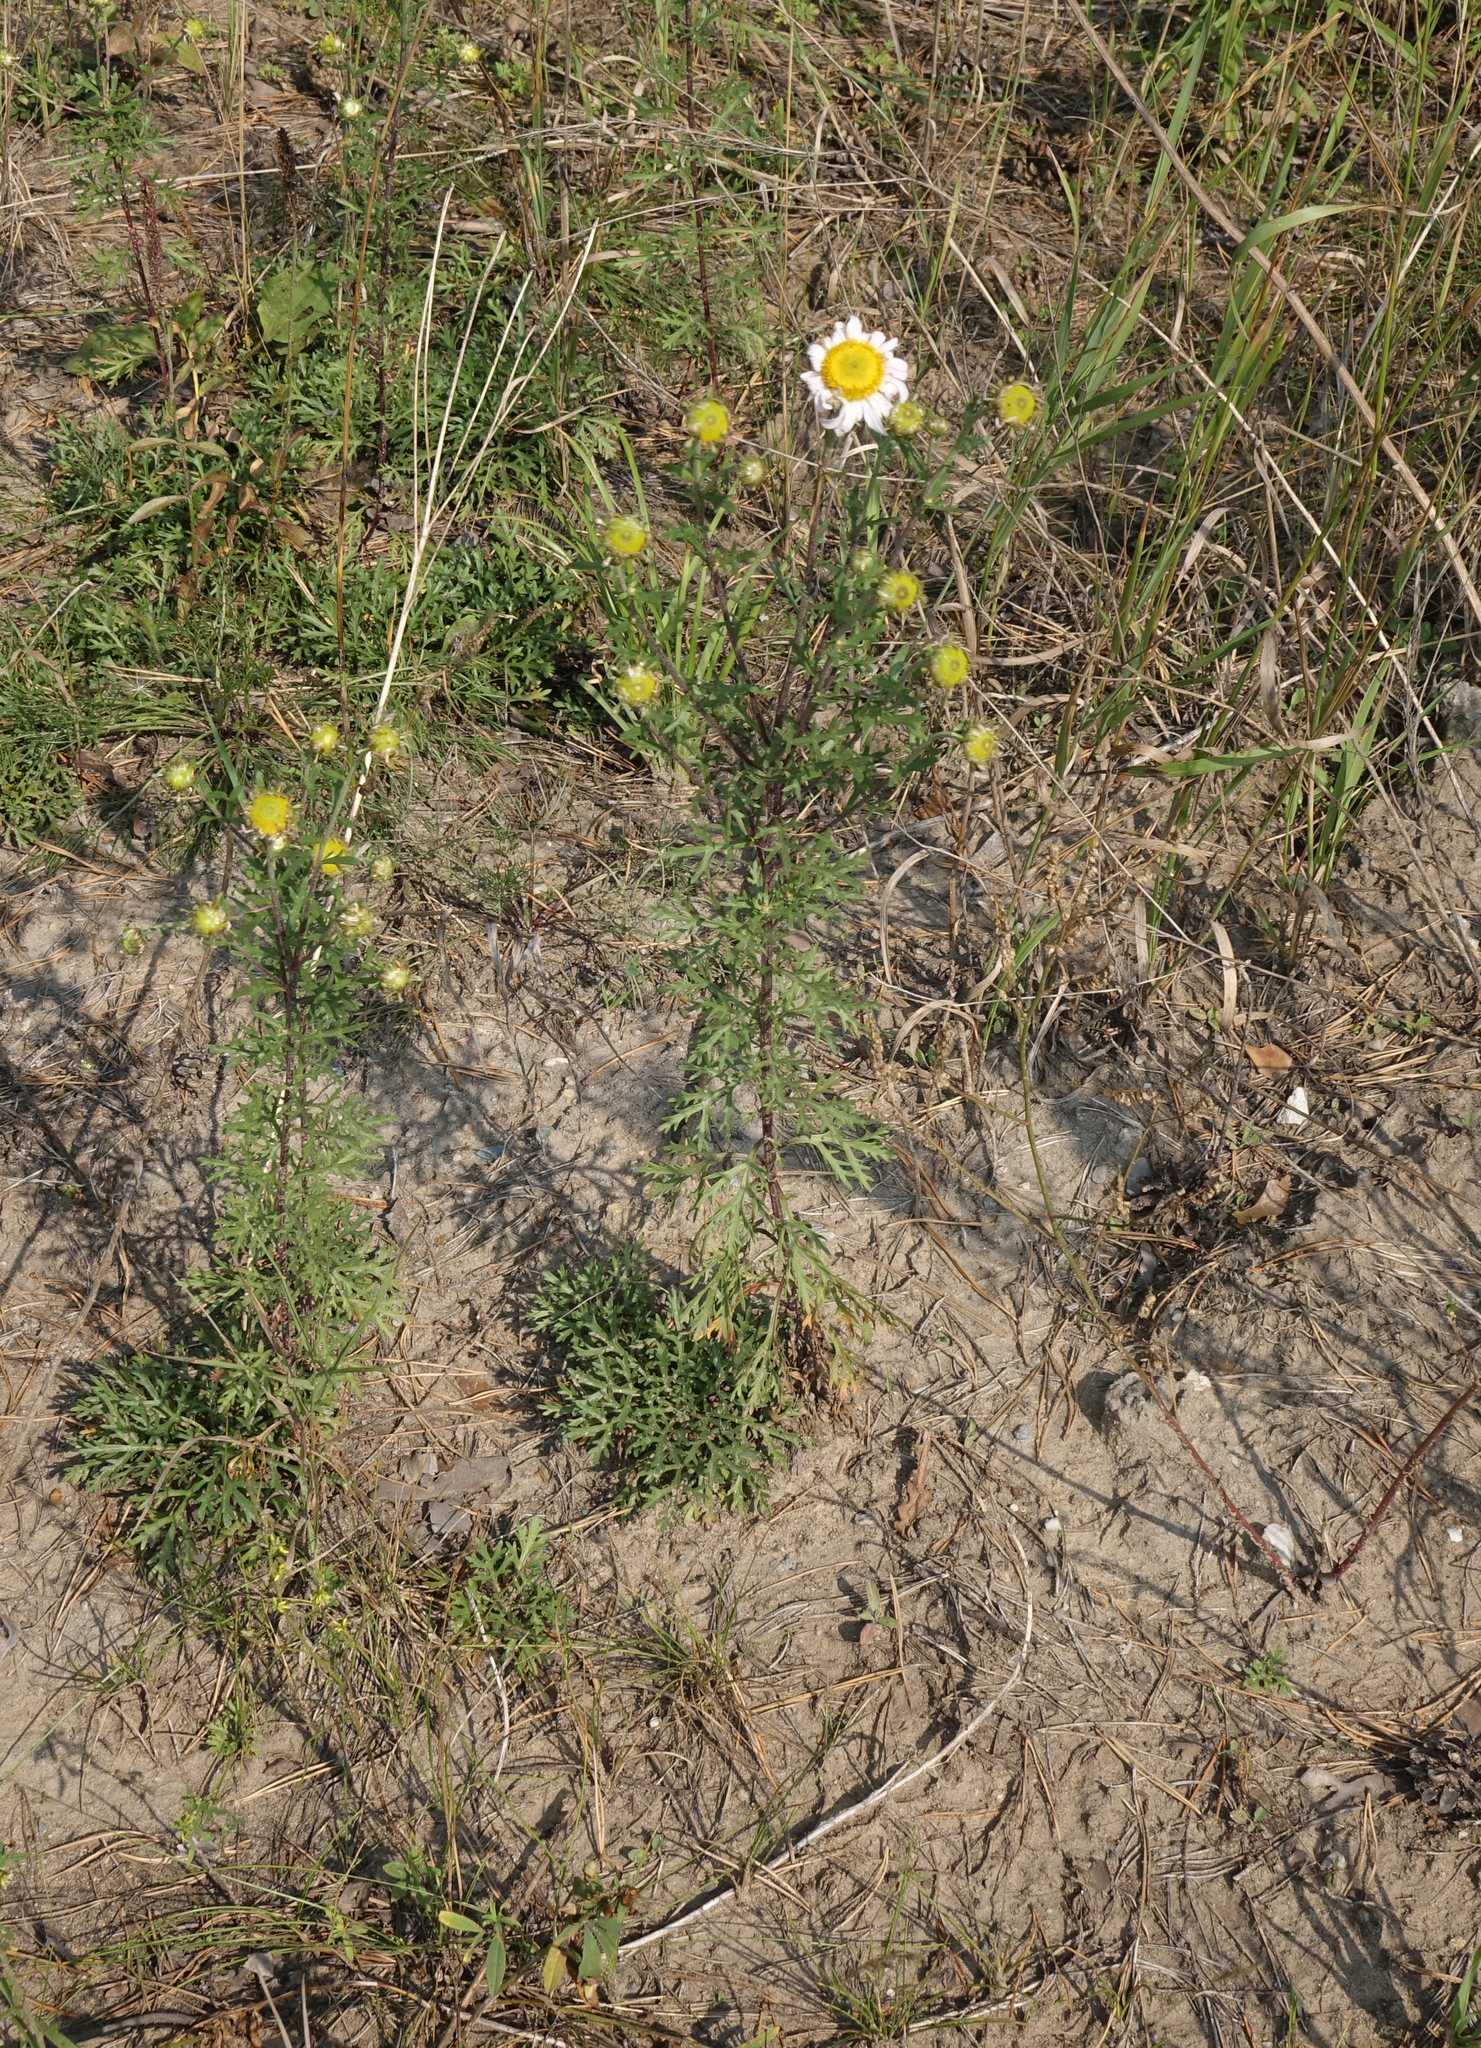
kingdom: Plantae
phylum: Tracheophyta
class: Magnoliopsida
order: Asterales
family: Asteraceae
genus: Chrysanthemum
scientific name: Chrysanthemum zawadzkii
